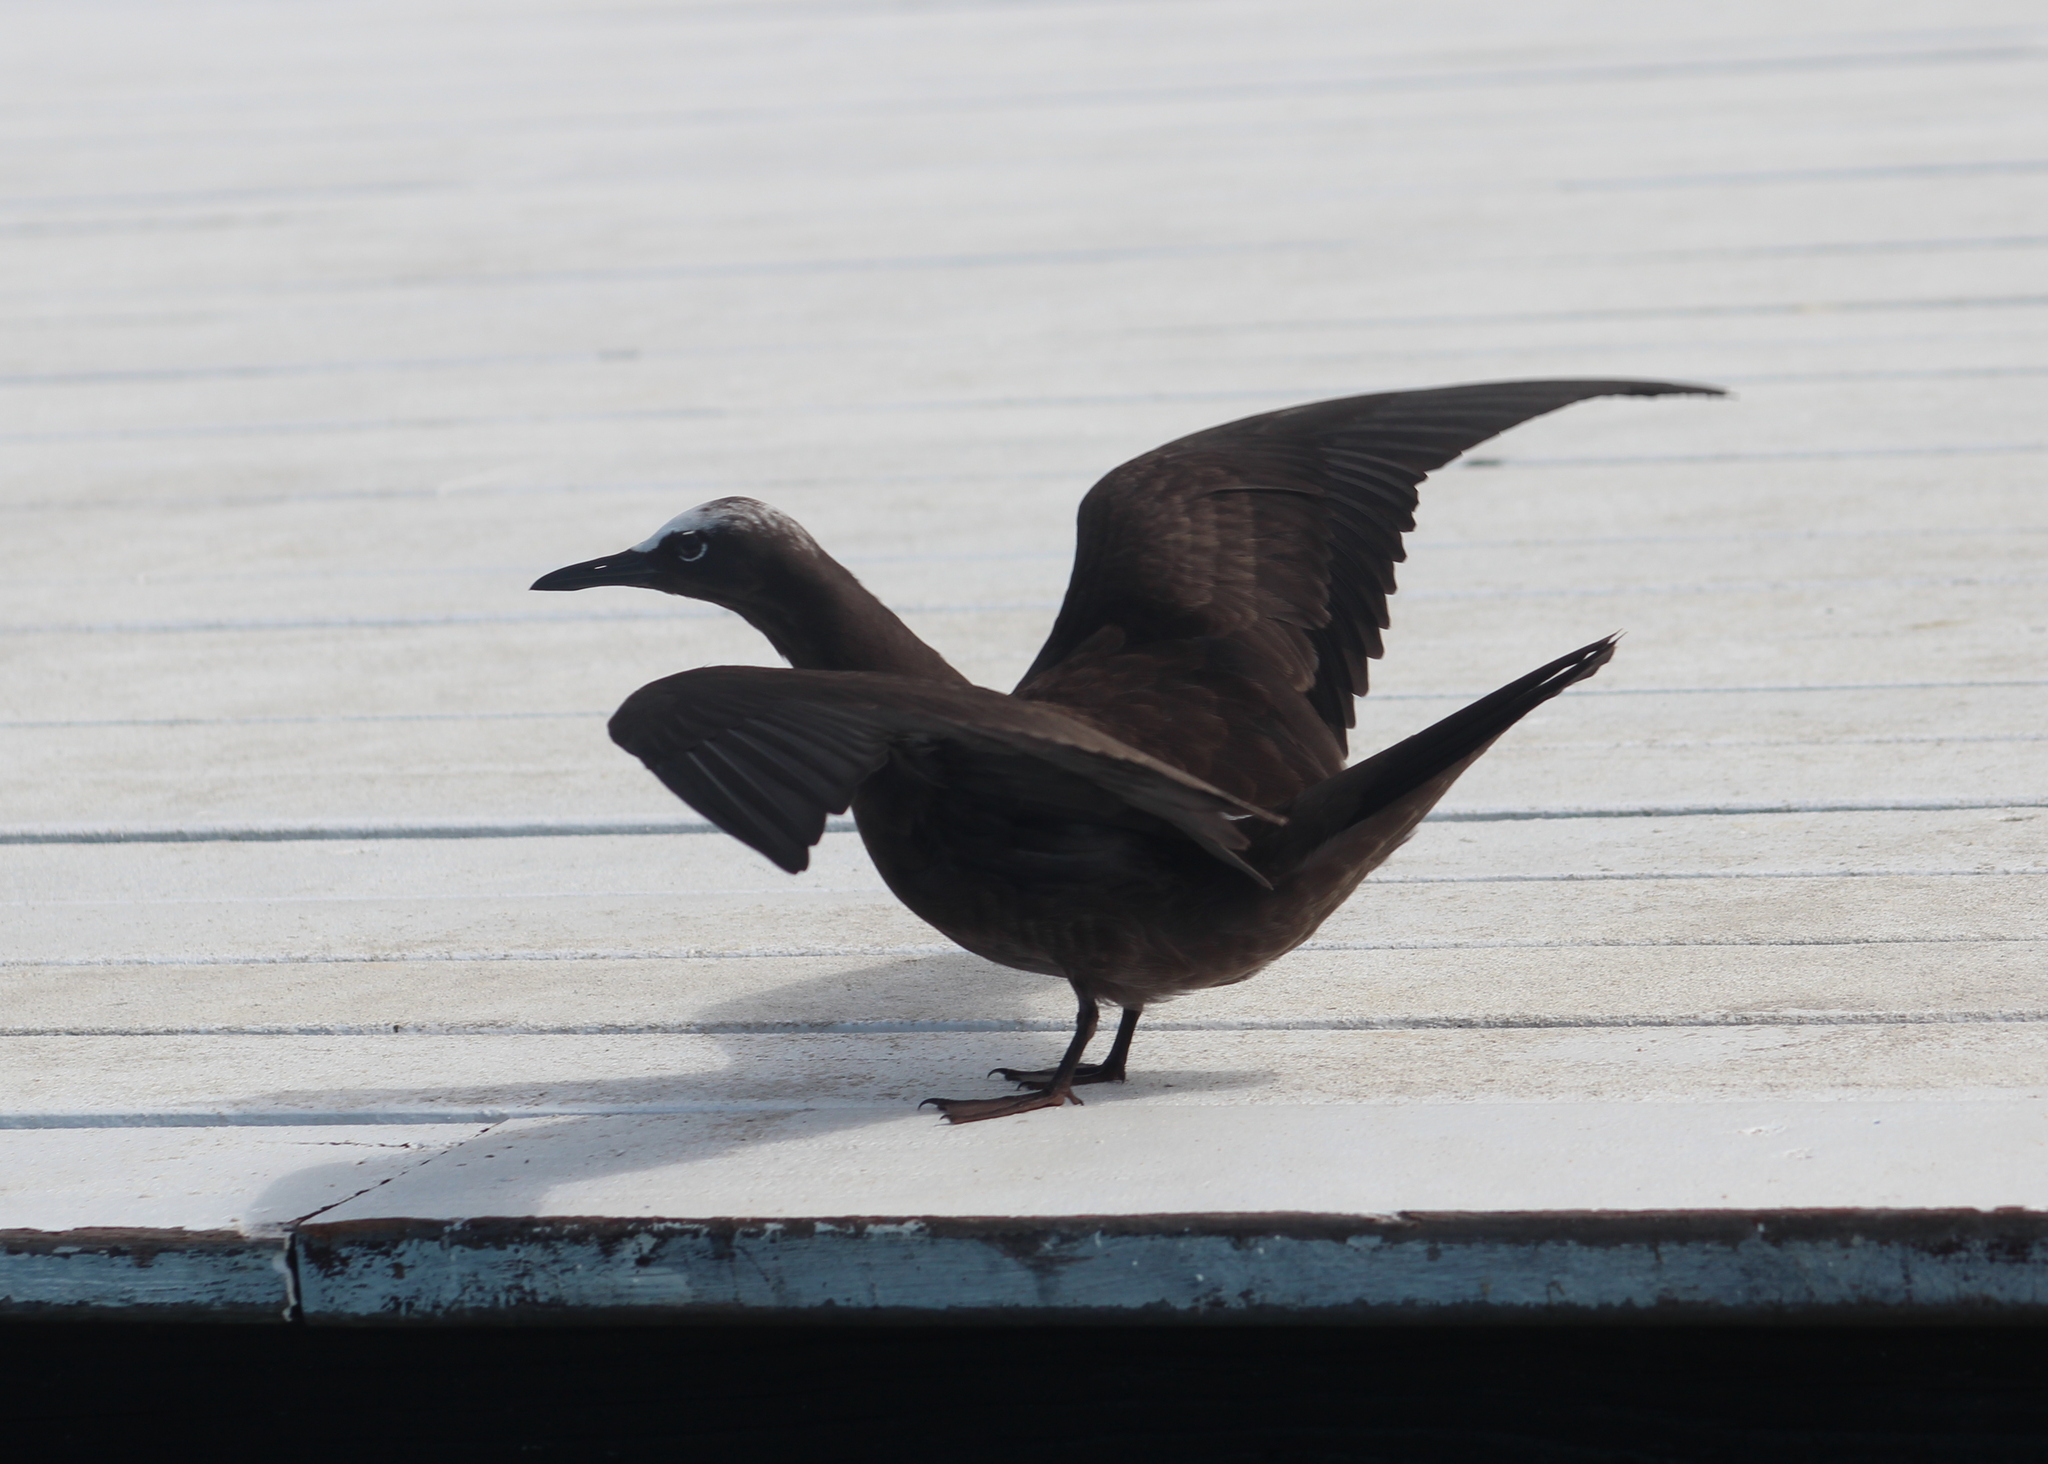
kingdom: Animalia
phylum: Chordata
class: Aves
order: Charadriiformes
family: Laridae
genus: Anous
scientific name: Anous stolidus
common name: Brown noddy
